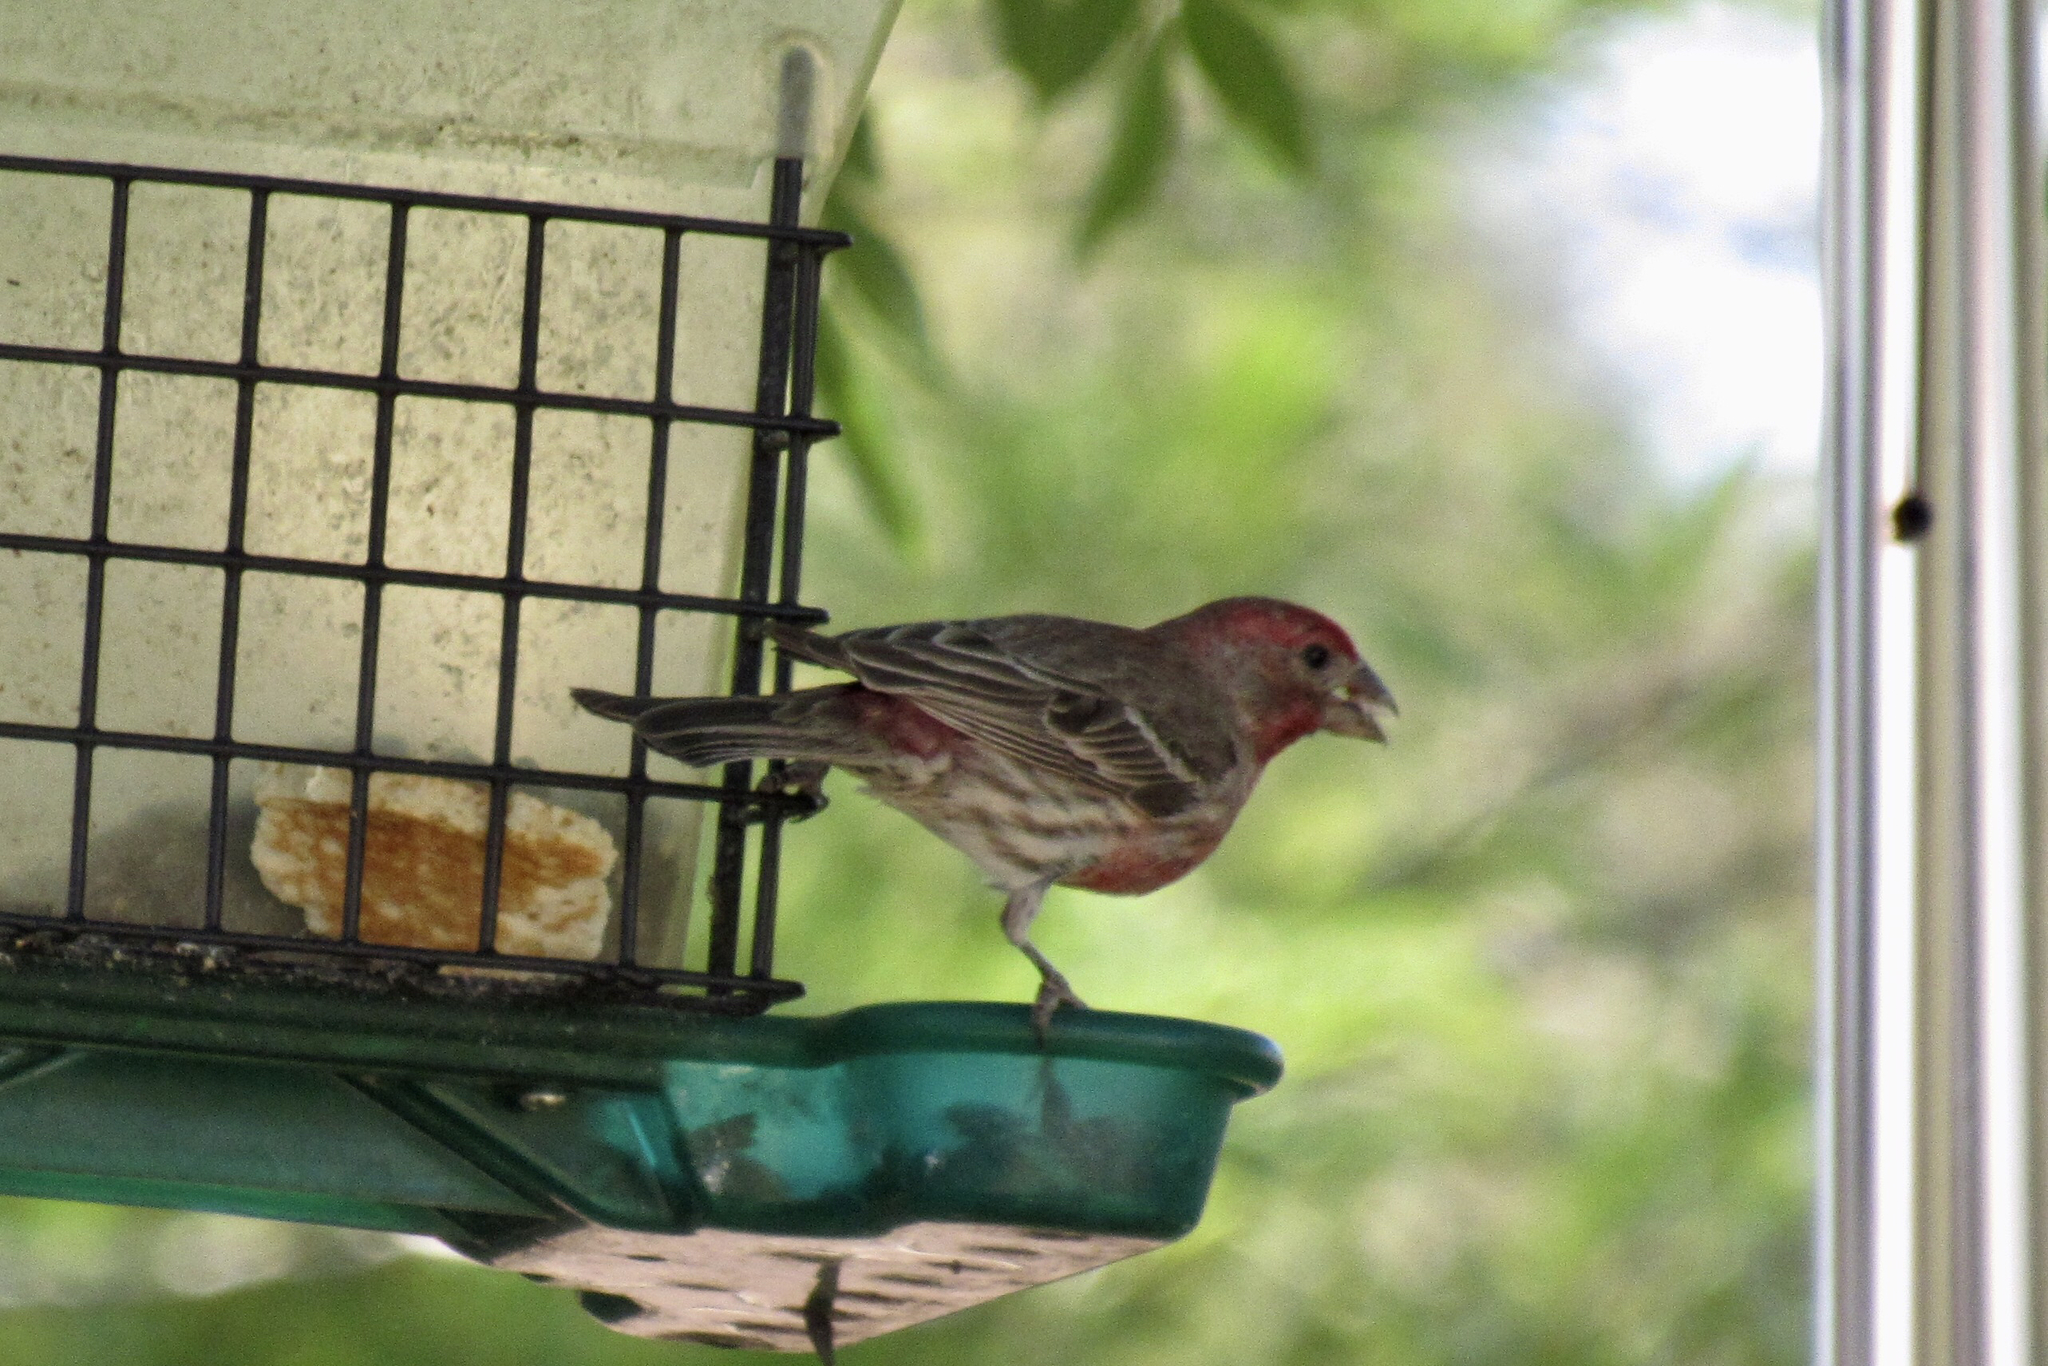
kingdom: Animalia
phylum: Chordata
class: Aves
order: Passeriformes
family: Fringillidae
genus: Haemorhous
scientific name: Haemorhous mexicanus
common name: House finch
